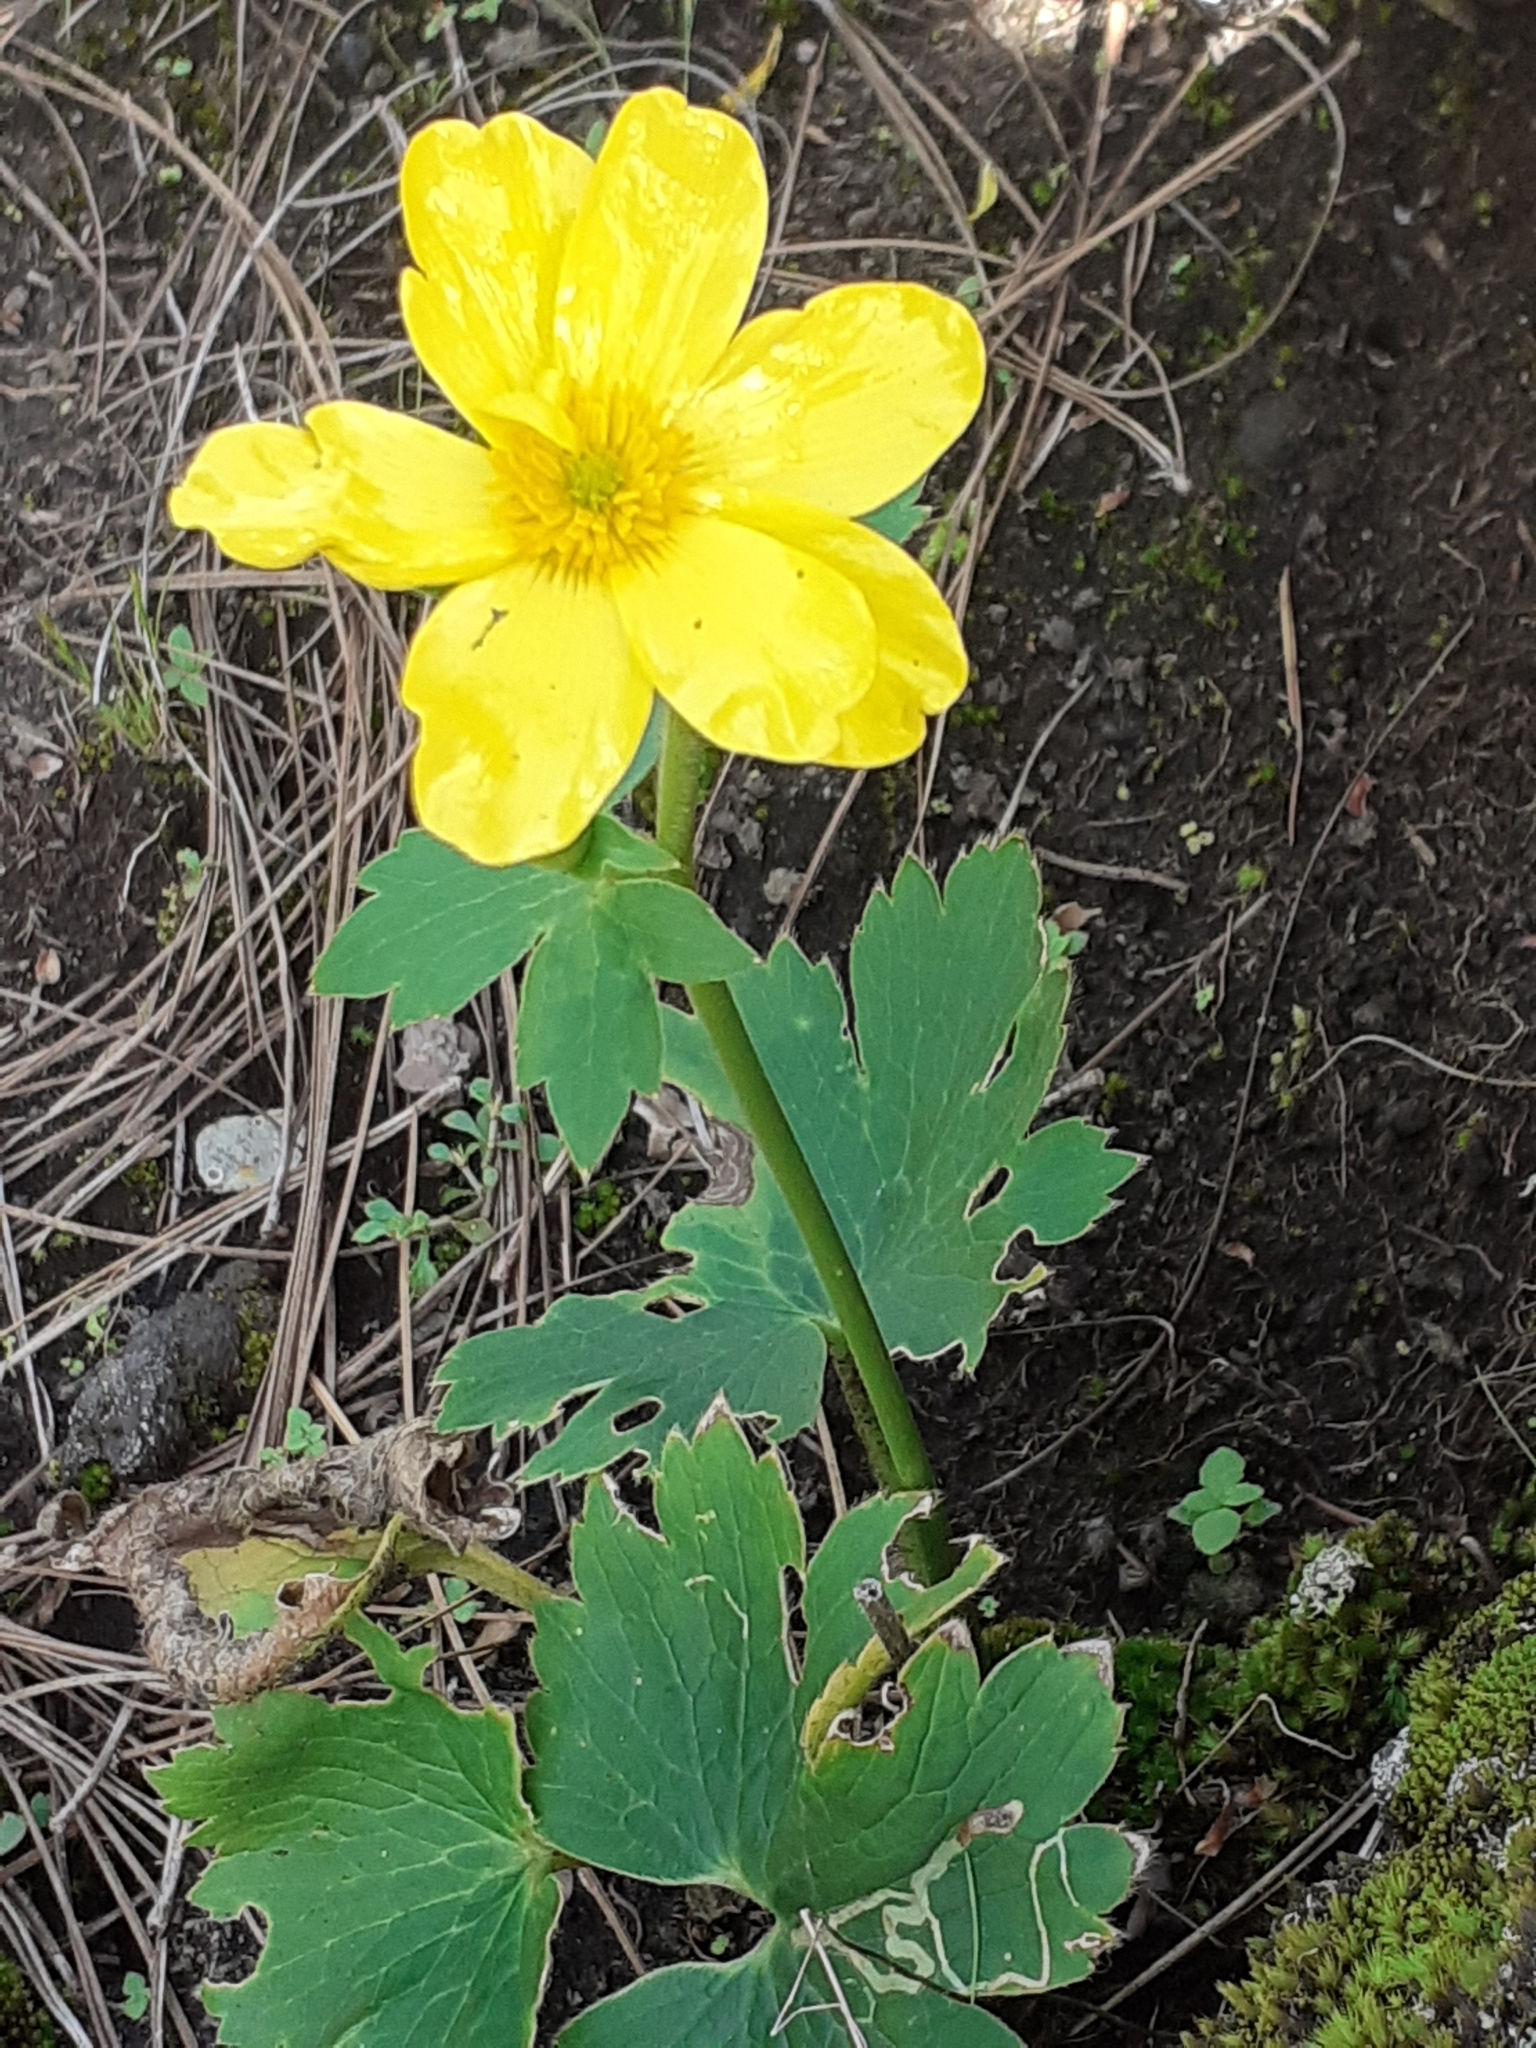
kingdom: Plantae
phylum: Tracheophyta
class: Magnoliopsida
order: Ranunculales
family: Ranunculaceae
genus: Ranunculus
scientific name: Ranunculus cortusifolius
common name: Azores buttercup
